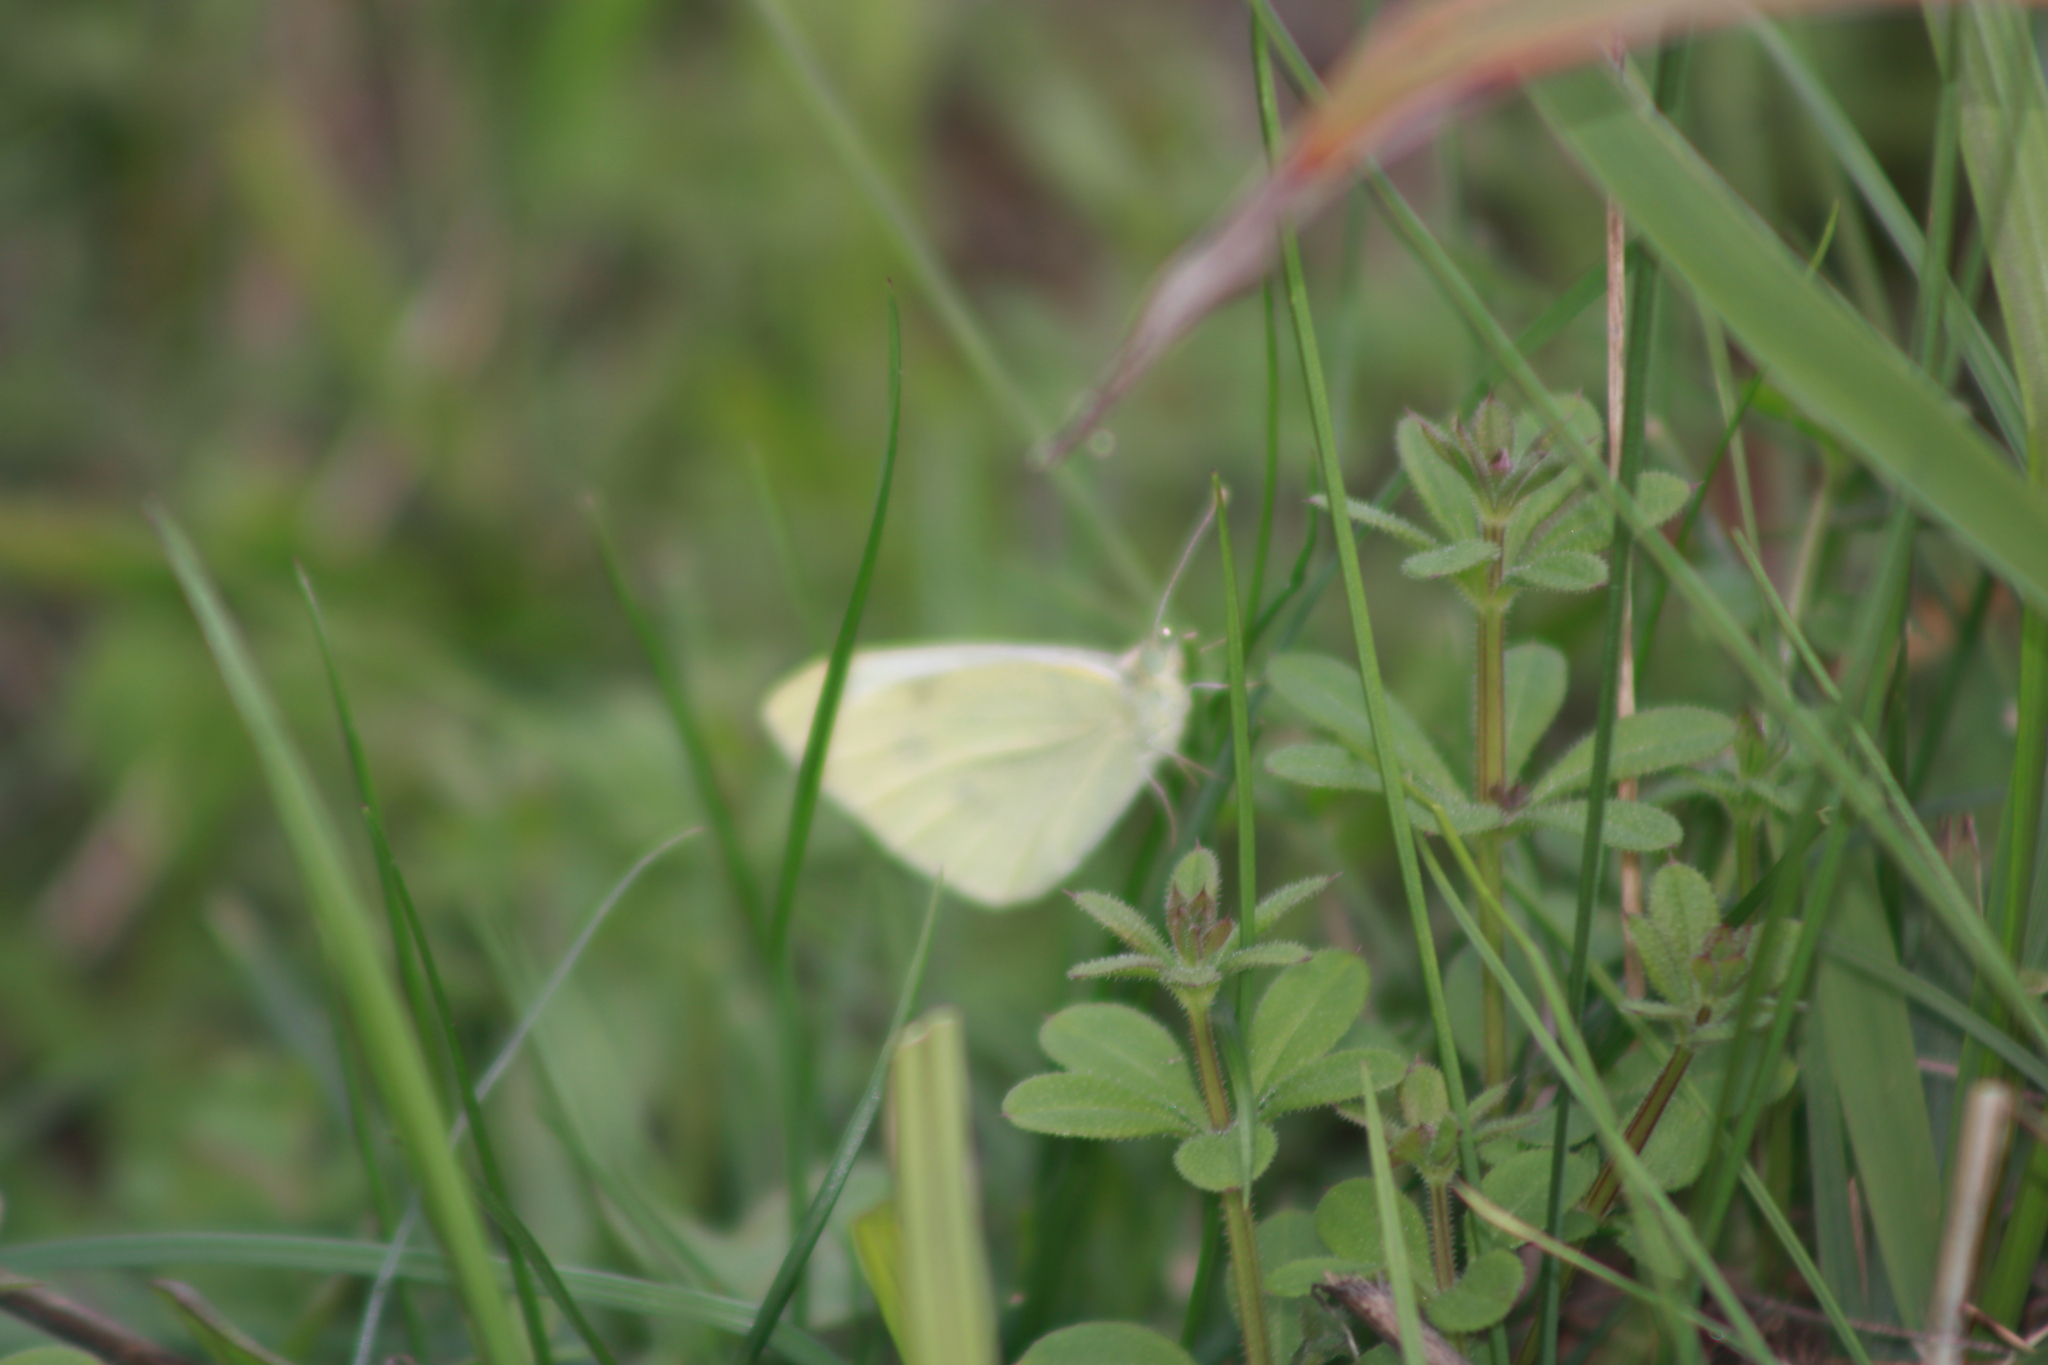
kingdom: Animalia
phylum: Arthropoda
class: Insecta
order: Lepidoptera
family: Pieridae
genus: Pieris
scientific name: Pieris rapae
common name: Small white
